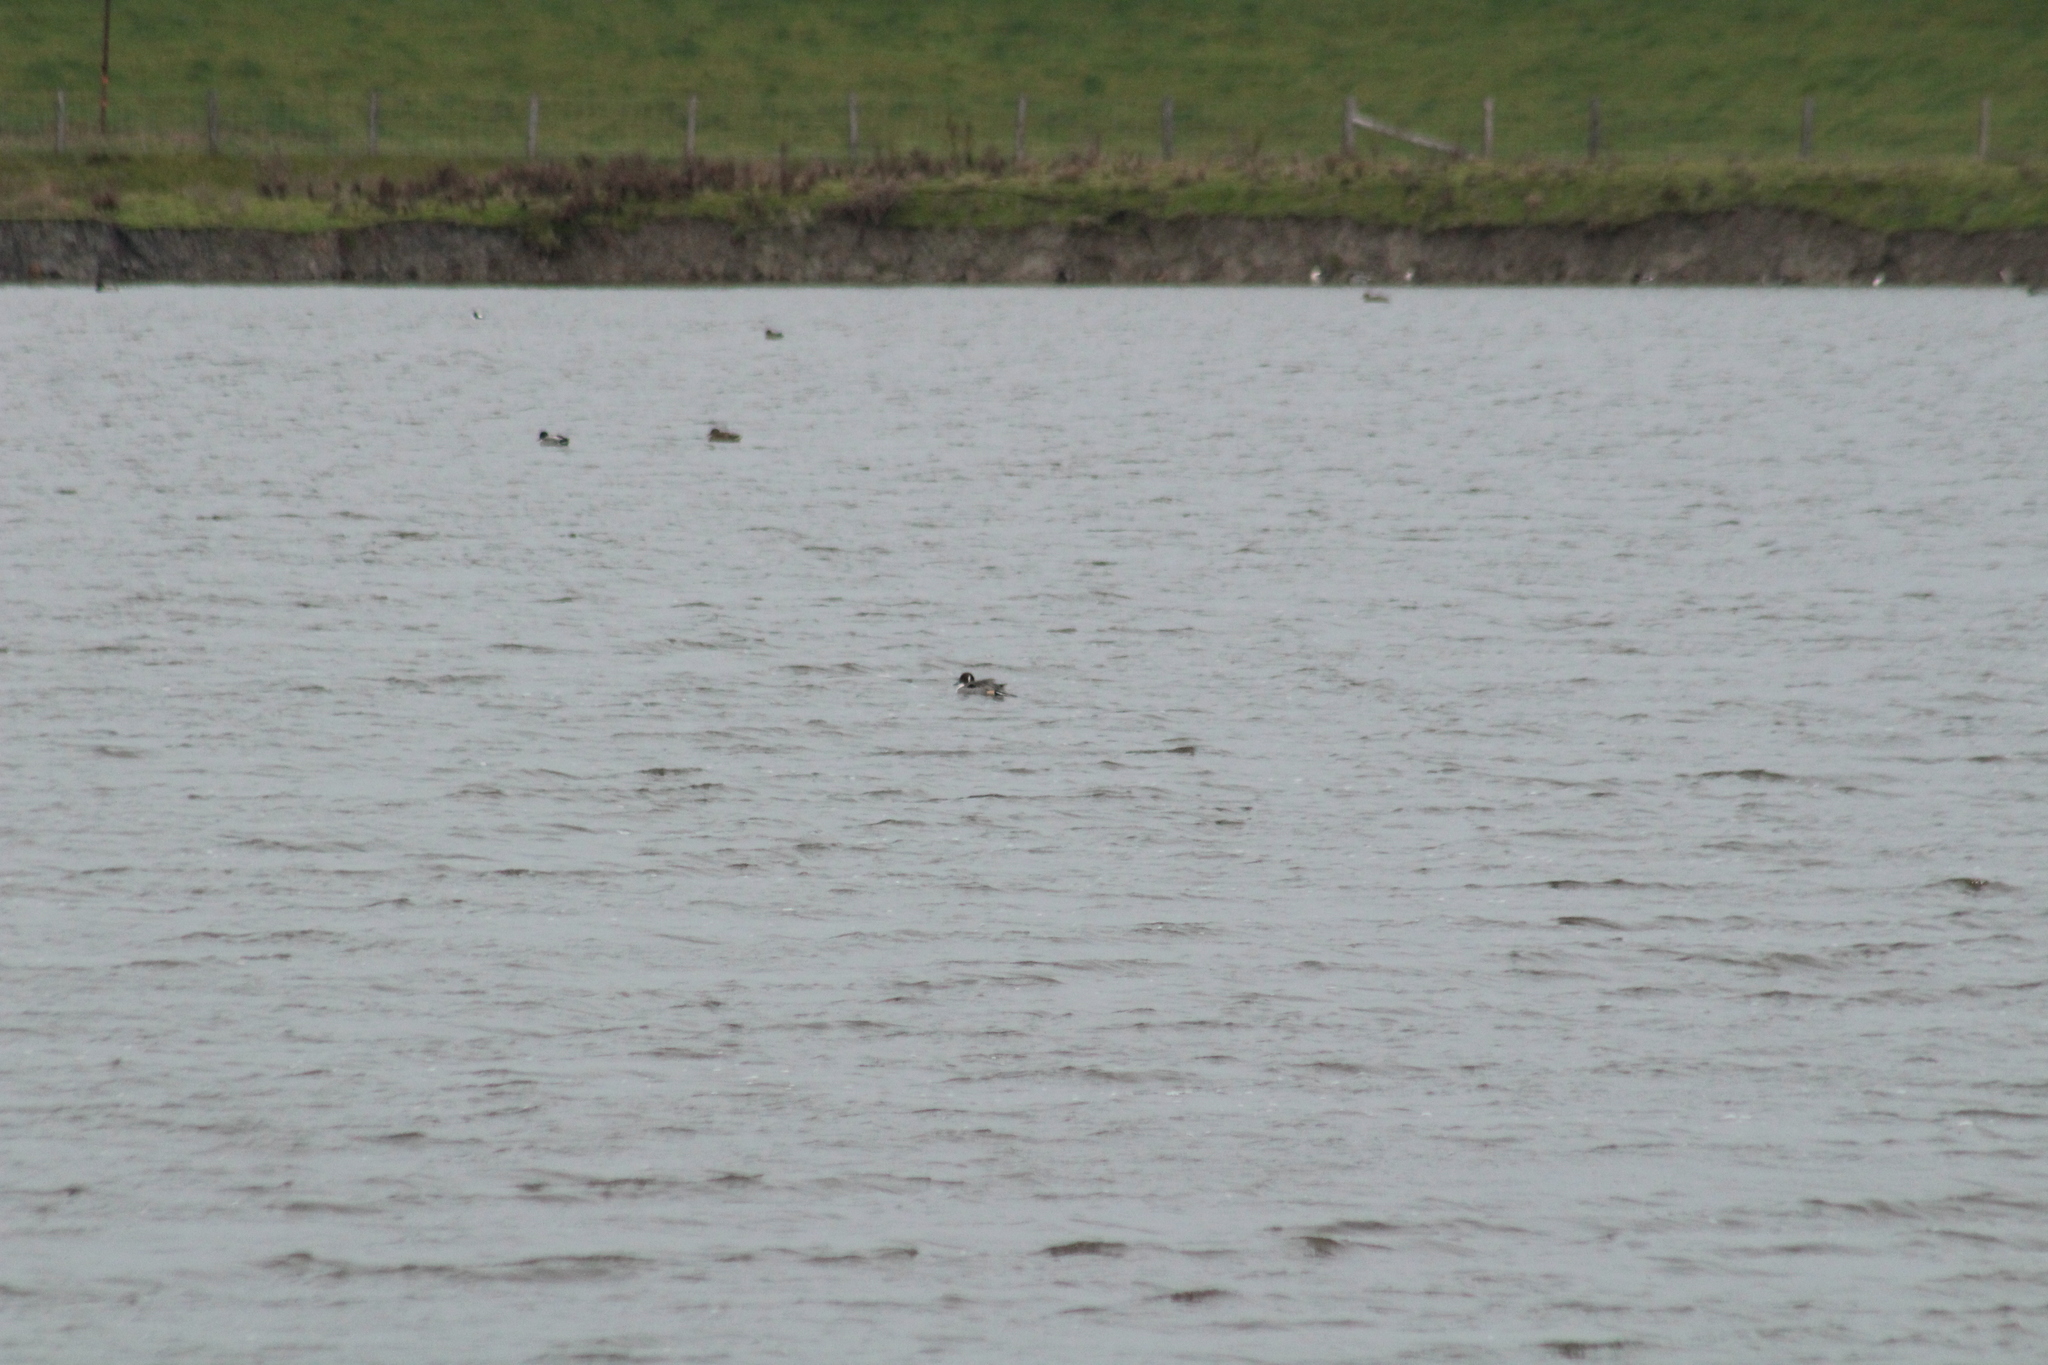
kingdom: Animalia
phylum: Chordata
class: Aves
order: Anseriformes
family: Anatidae
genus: Anas
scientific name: Anas acuta
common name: Northern pintail
